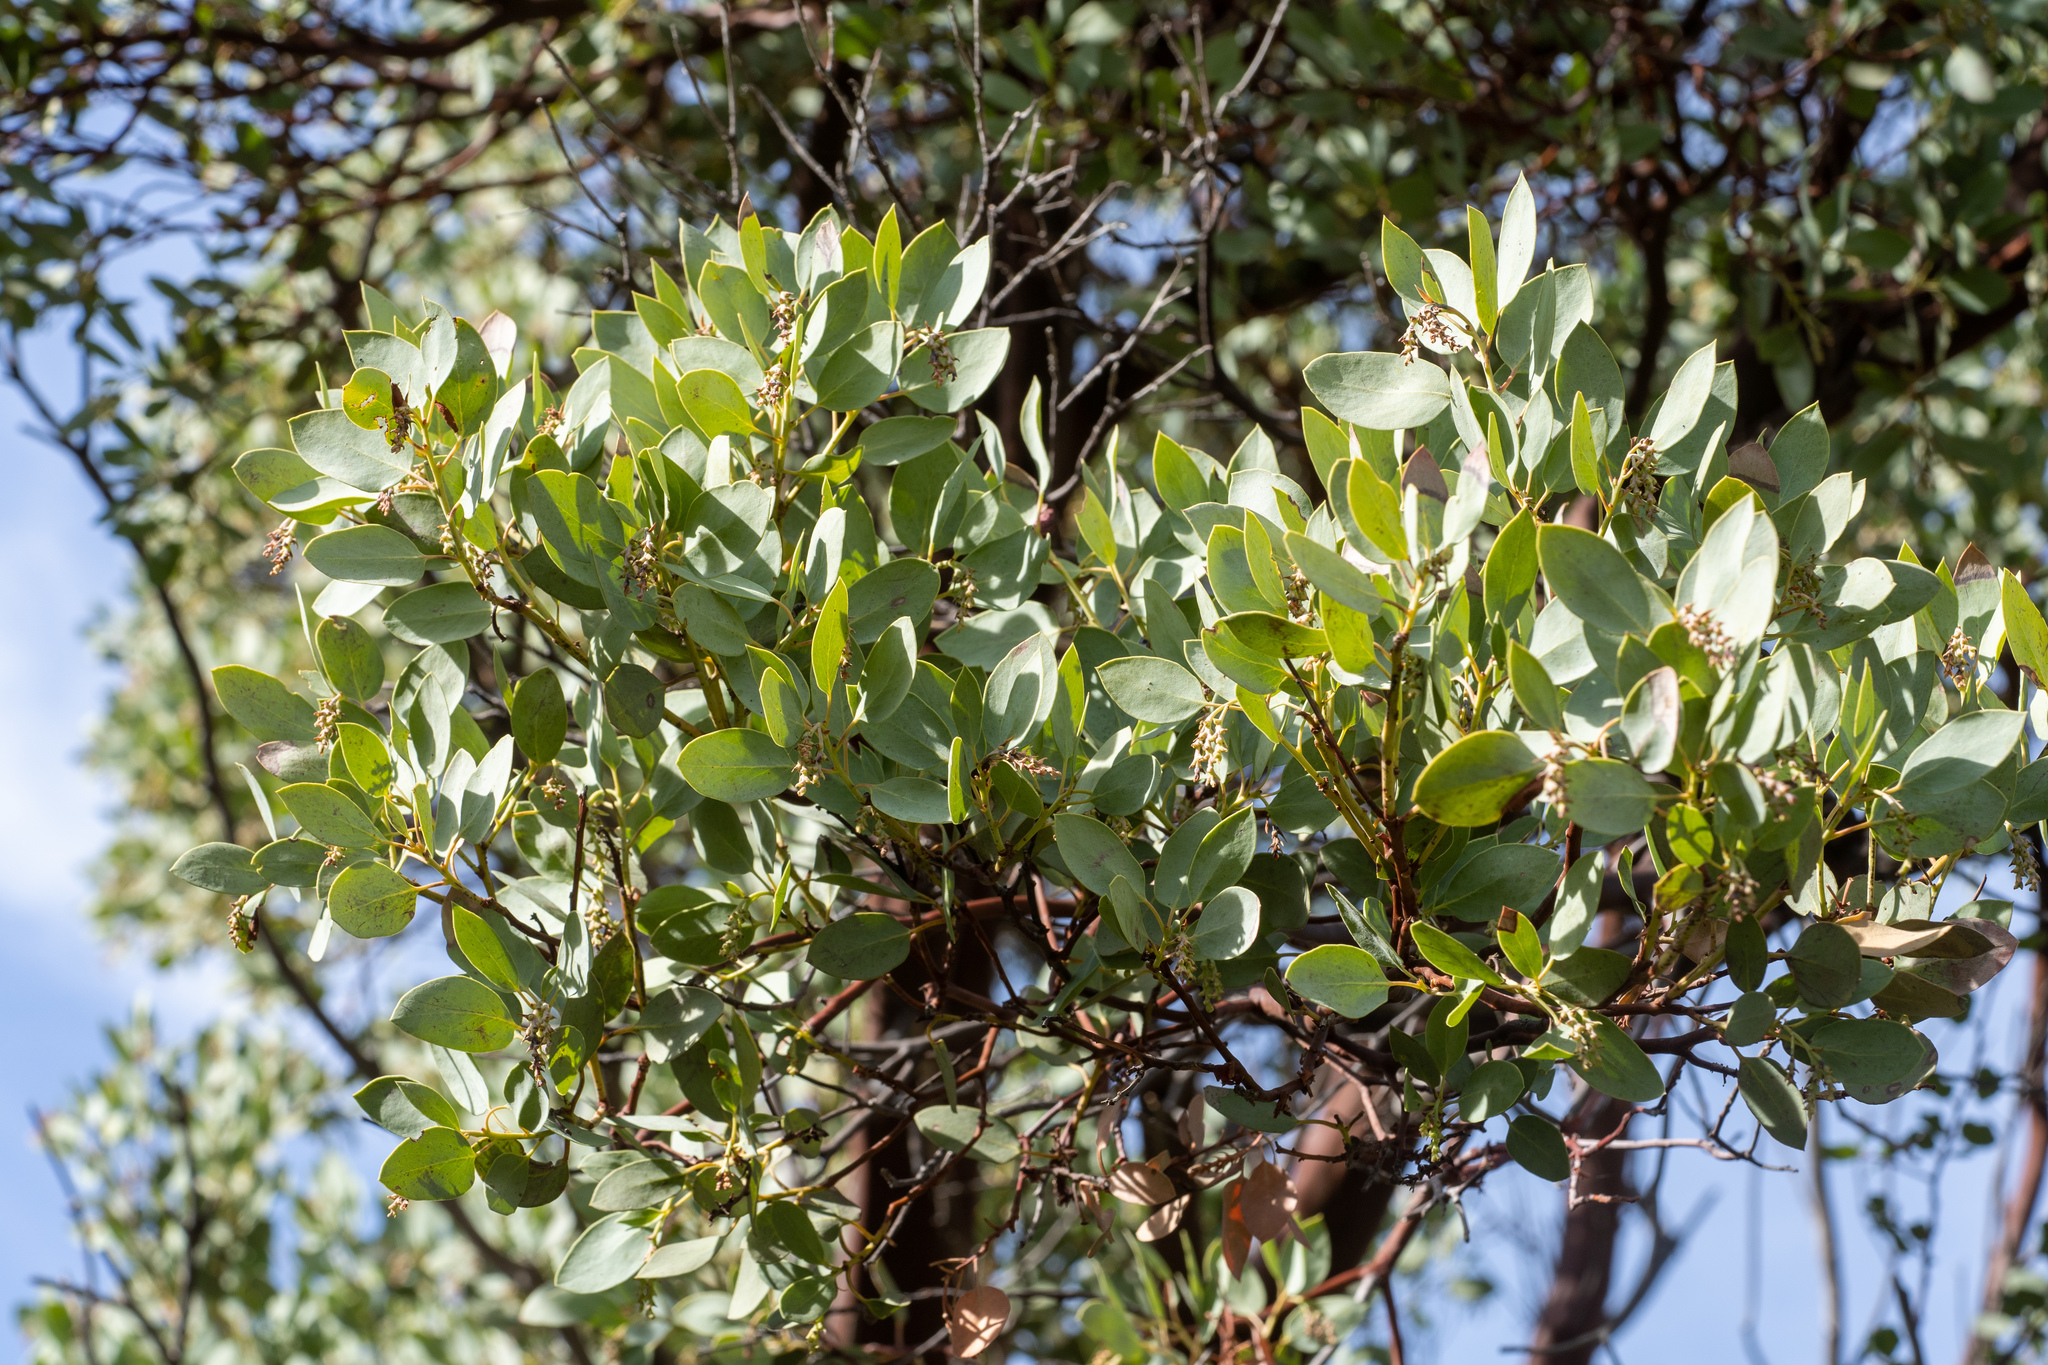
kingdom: Plantae
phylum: Tracheophyta
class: Magnoliopsida
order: Ericales
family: Ericaceae
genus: Arctostaphylos
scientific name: Arctostaphylos glauca
